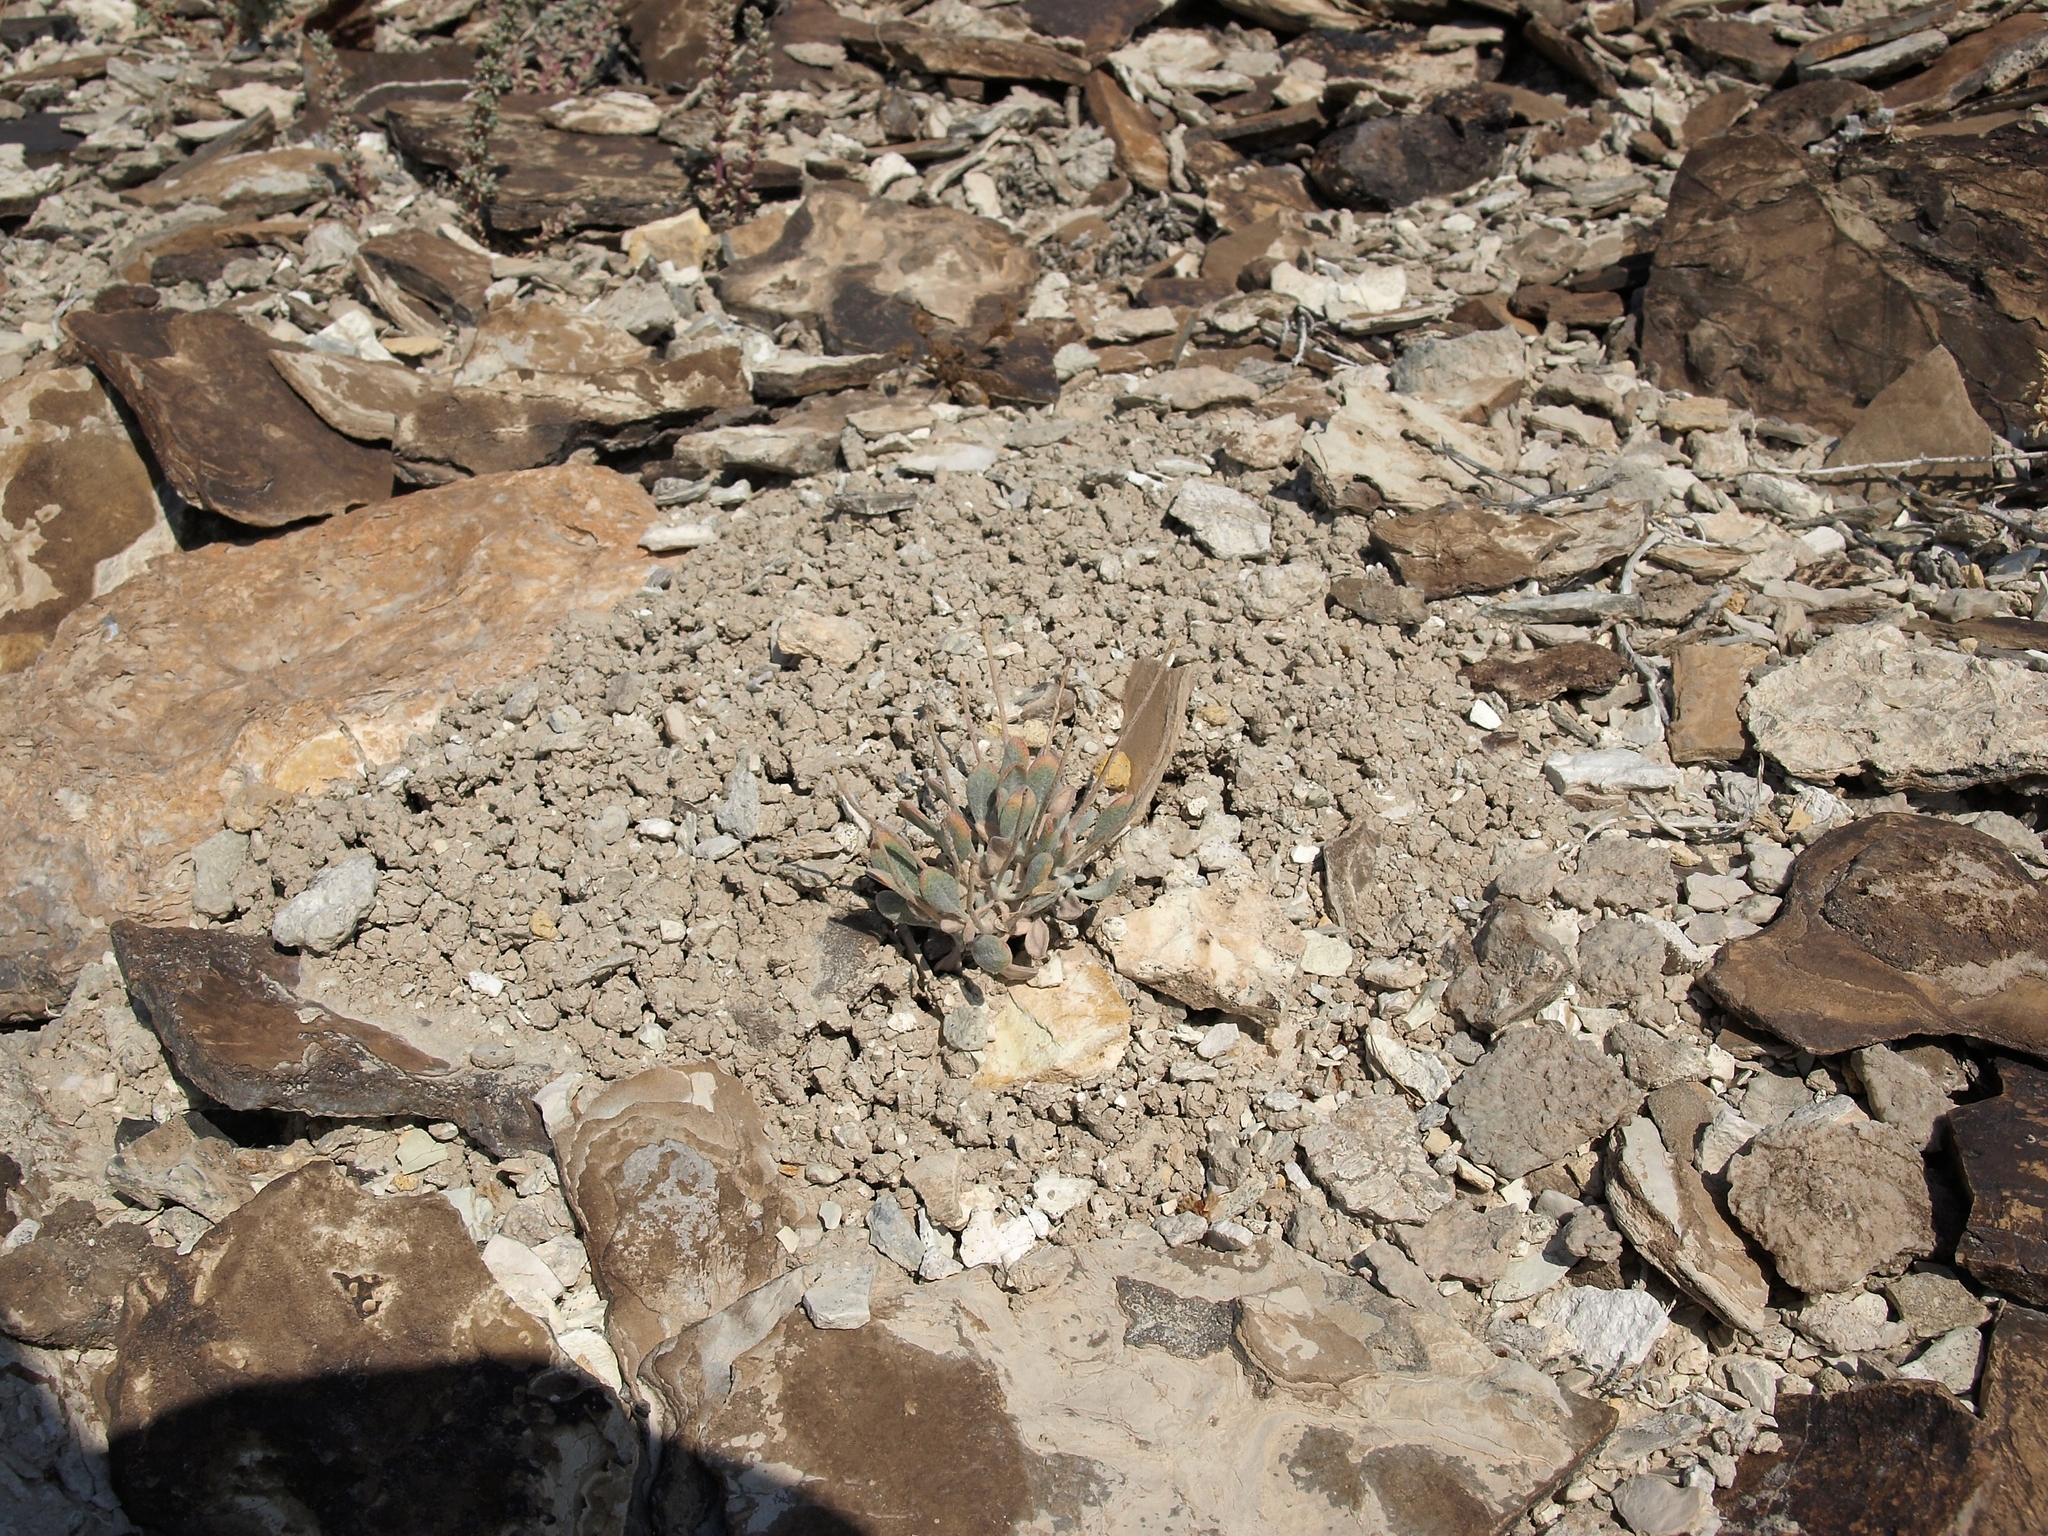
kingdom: Plantae
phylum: Tracheophyta
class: Magnoliopsida
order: Caryophyllales
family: Polygonaceae
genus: Eriogonum
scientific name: Eriogonum tiehmii
